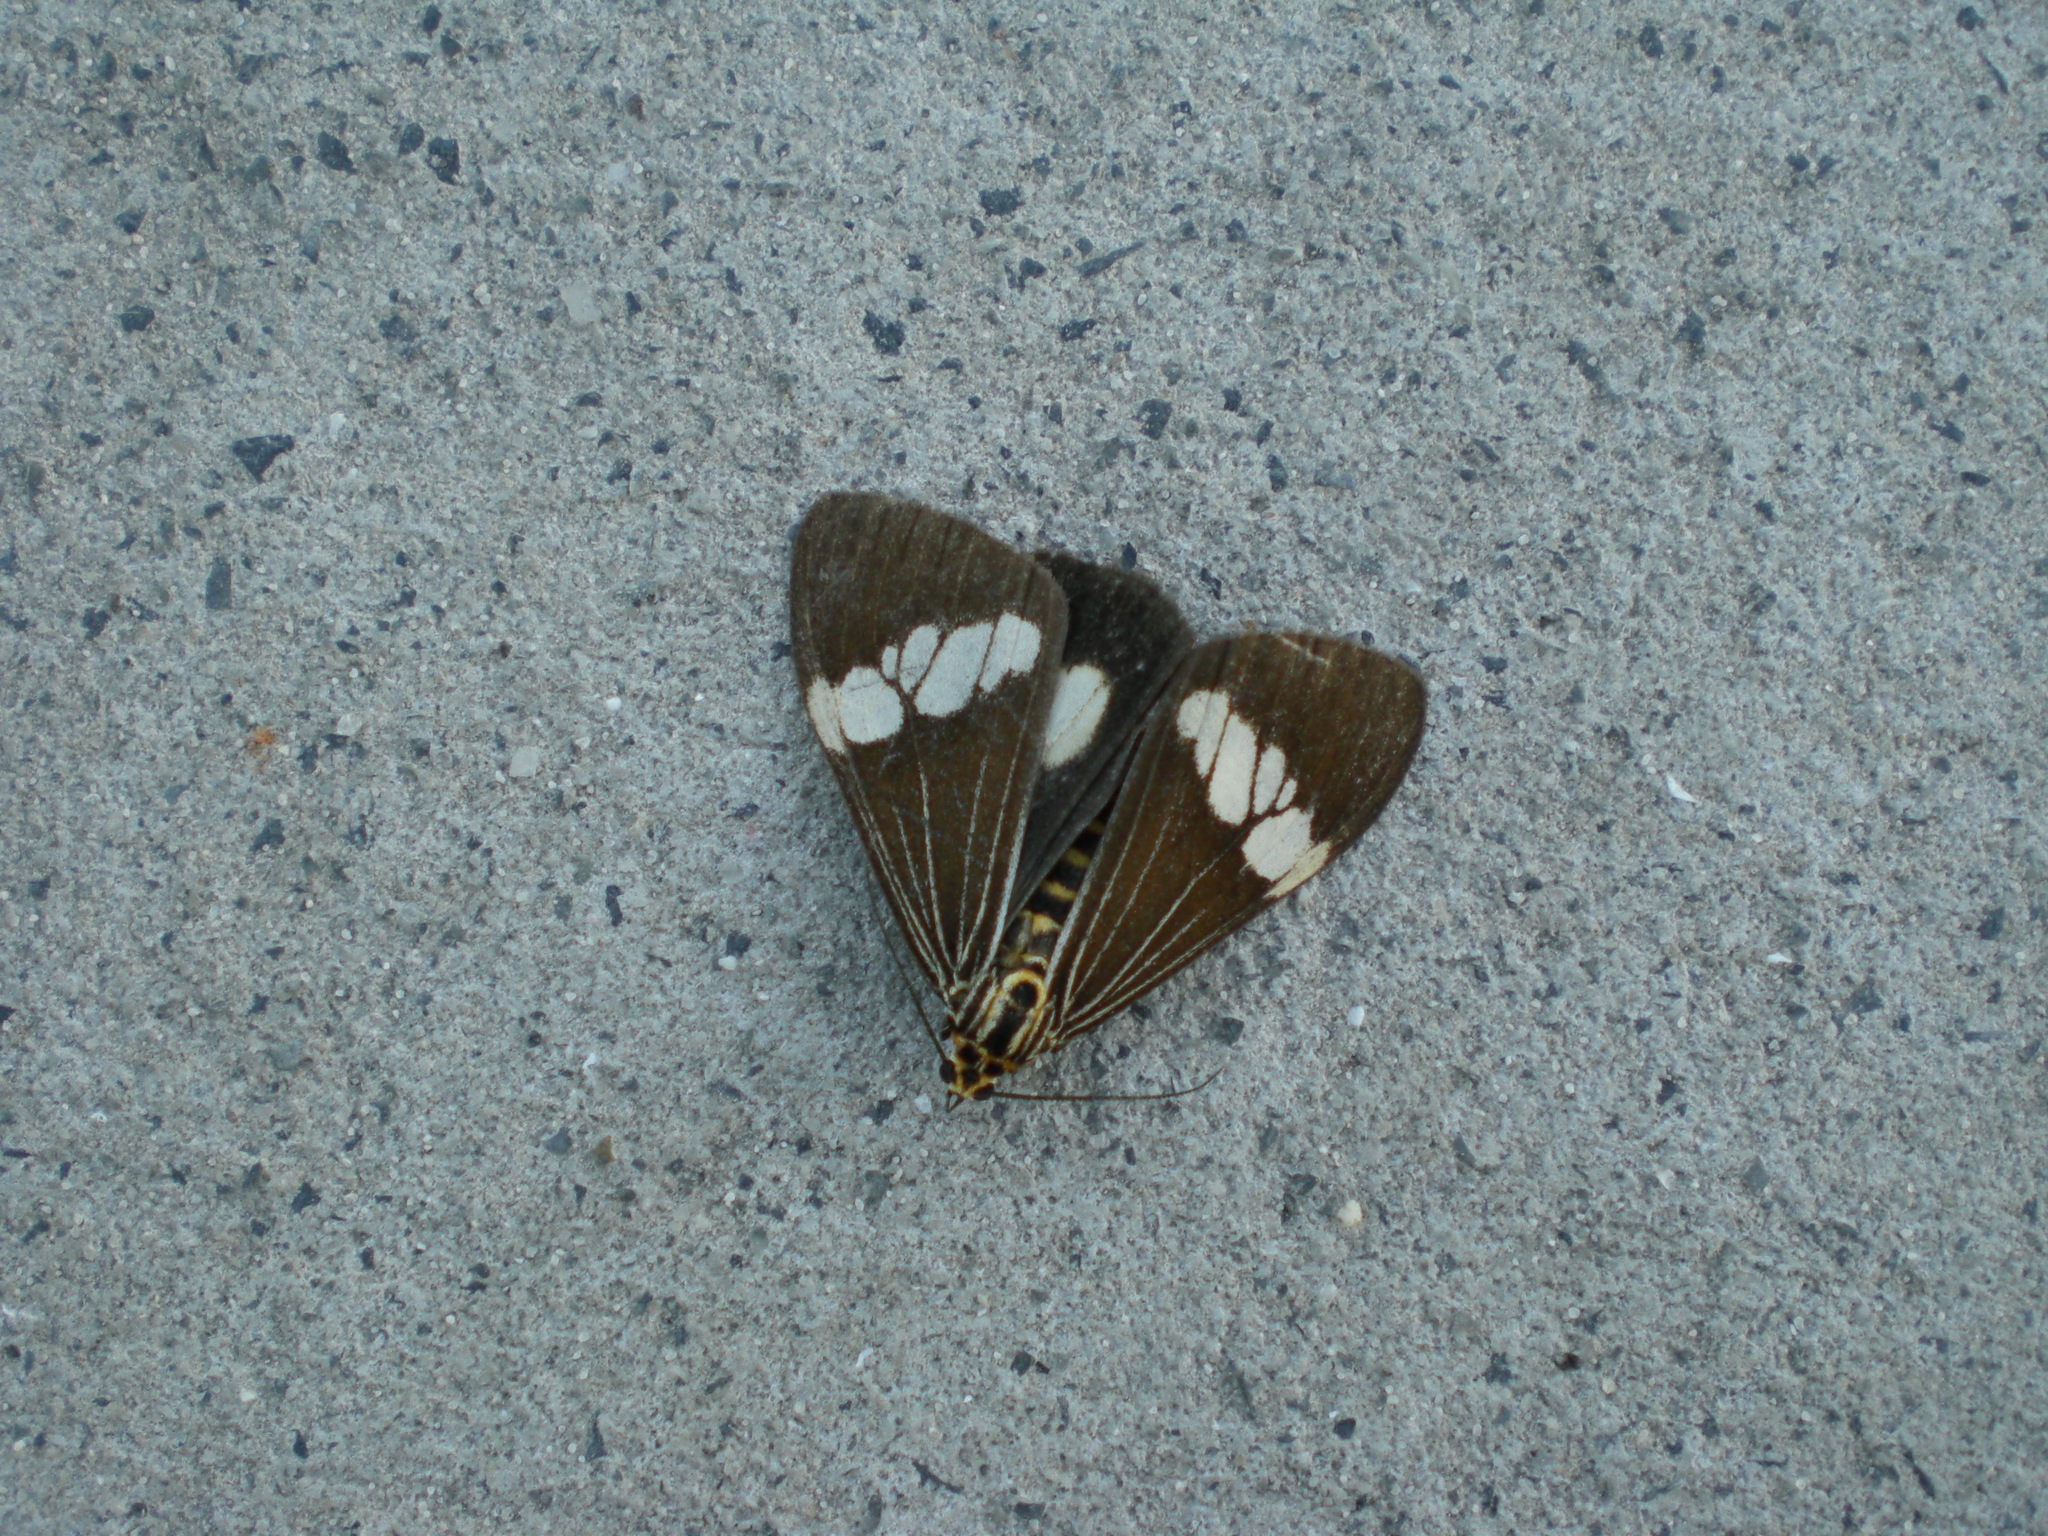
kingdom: Animalia
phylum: Arthropoda
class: Insecta
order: Lepidoptera
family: Erebidae
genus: Nyctemera
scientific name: Nyctemera baulus
